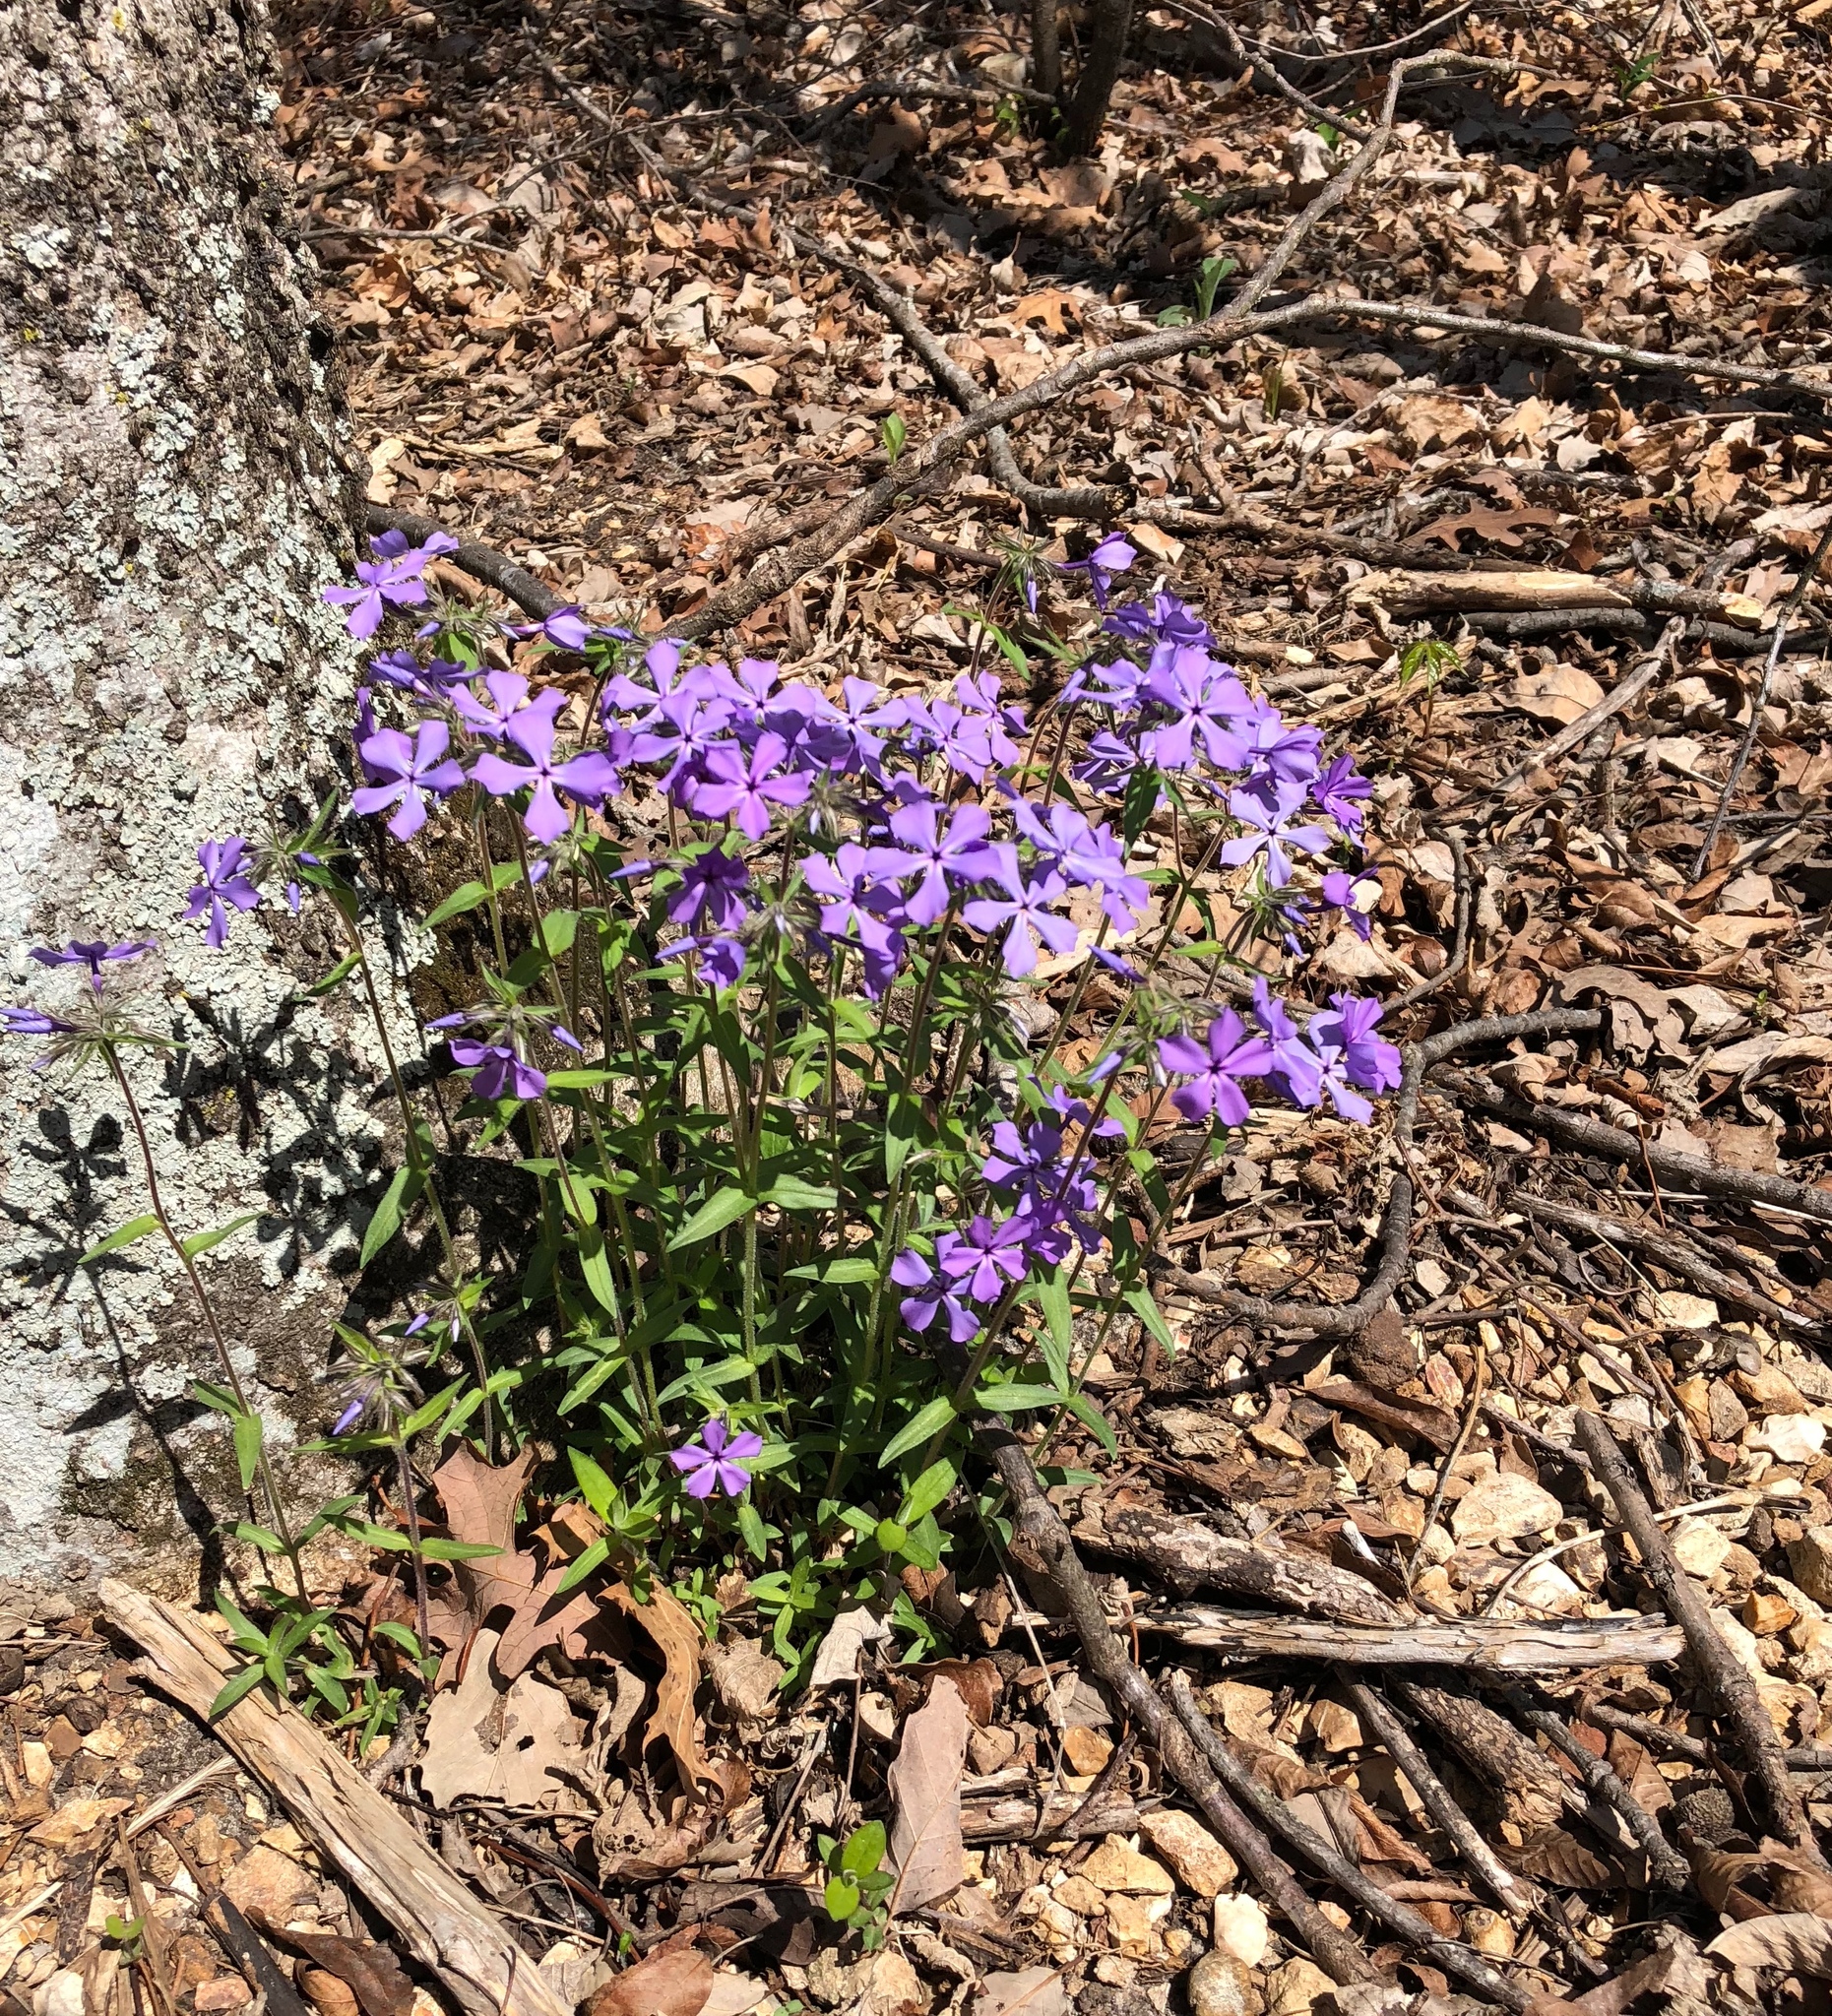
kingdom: Plantae
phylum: Tracheophyta
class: Magnoliopsida
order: Ericales
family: Polemoniaceae
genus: Phlox
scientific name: Phlox divaricata
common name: Blue phlox
